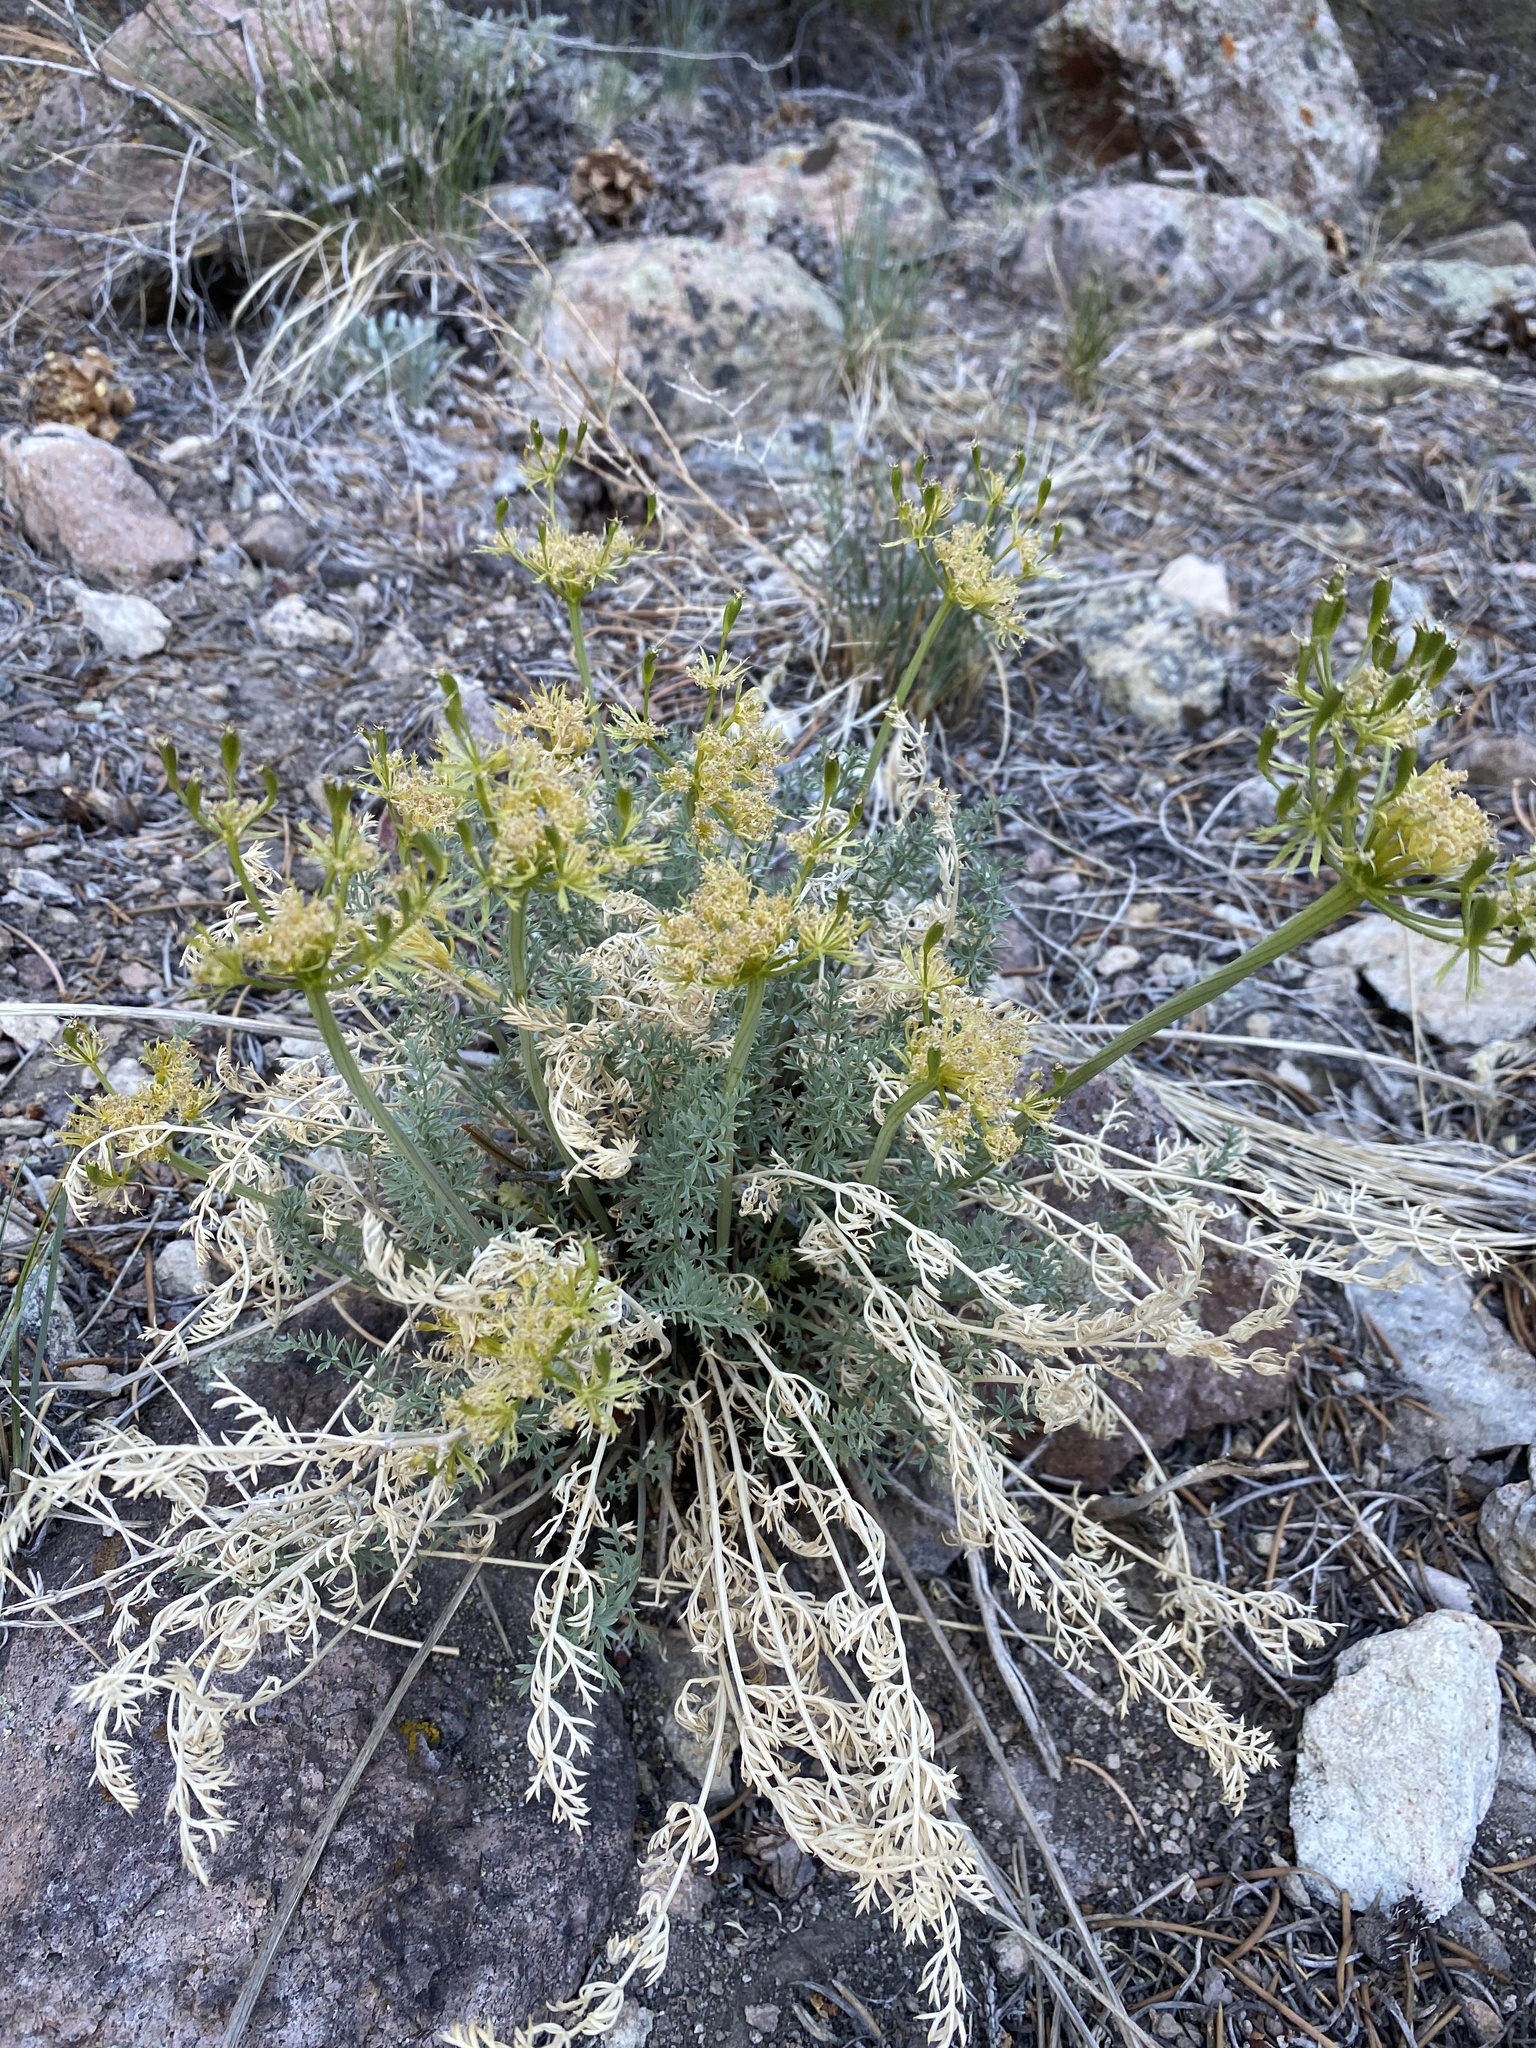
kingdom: Plantae
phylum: Tracheophyta
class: Magnoliopsida
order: Apiales
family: Apiaceae
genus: Lomatium
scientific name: Lomatium parryi
